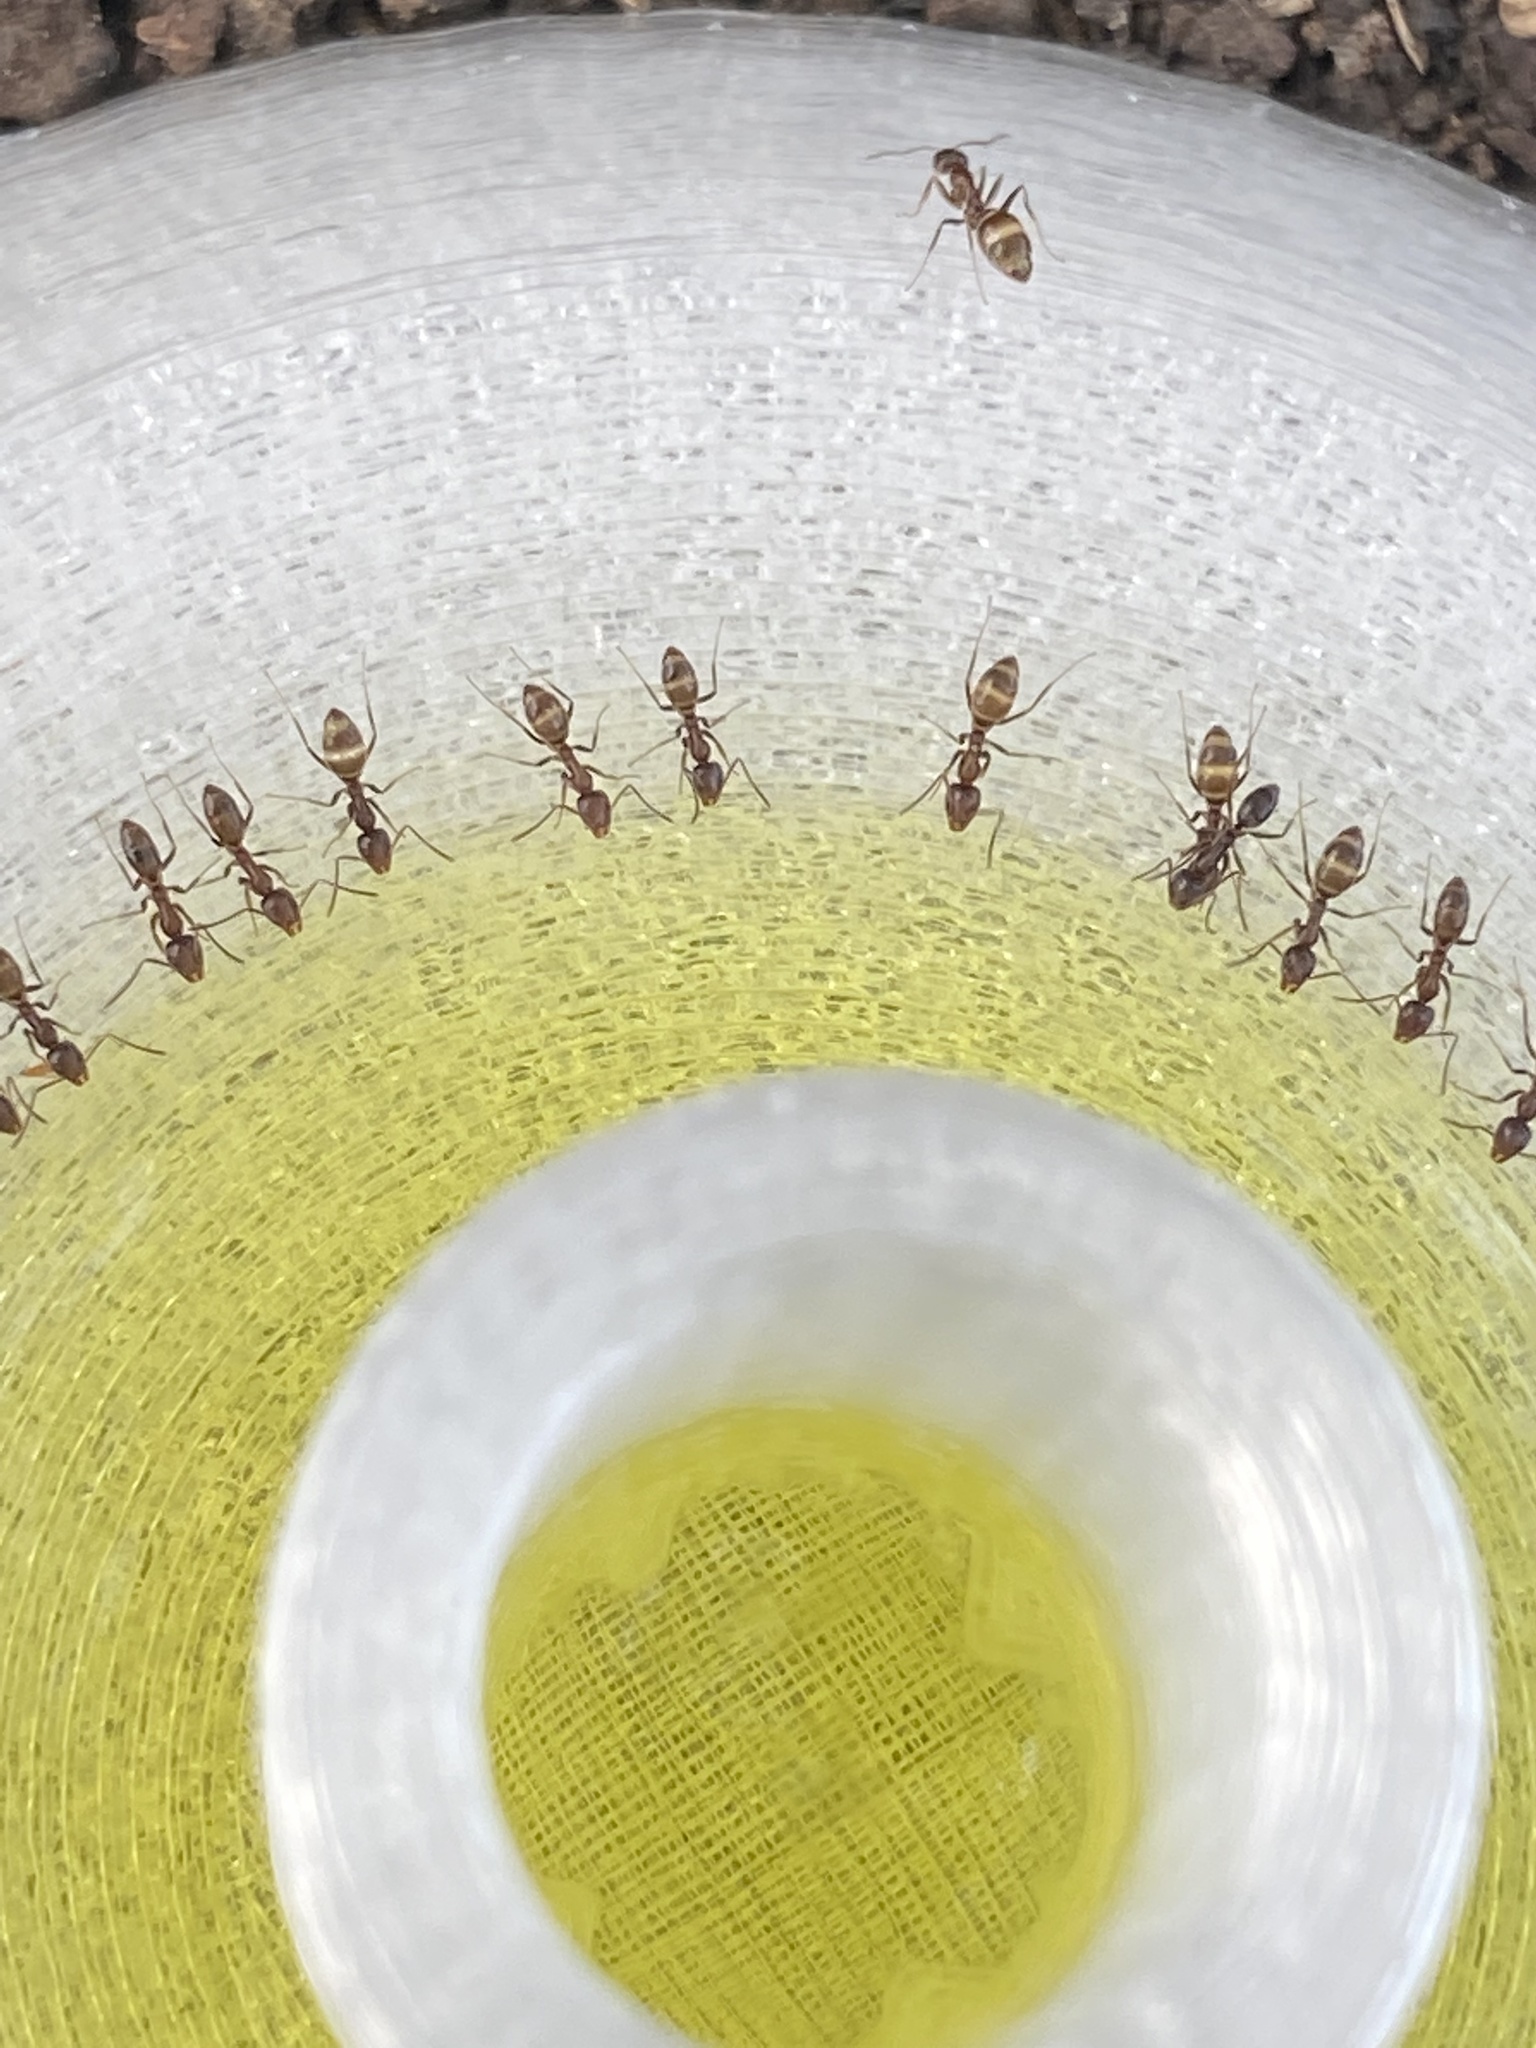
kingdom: Animalia
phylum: Arthropoda
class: Insecta
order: Hymenoptera
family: Formicidae
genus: Linepithema
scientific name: Linepithema humile
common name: Argentine ant
